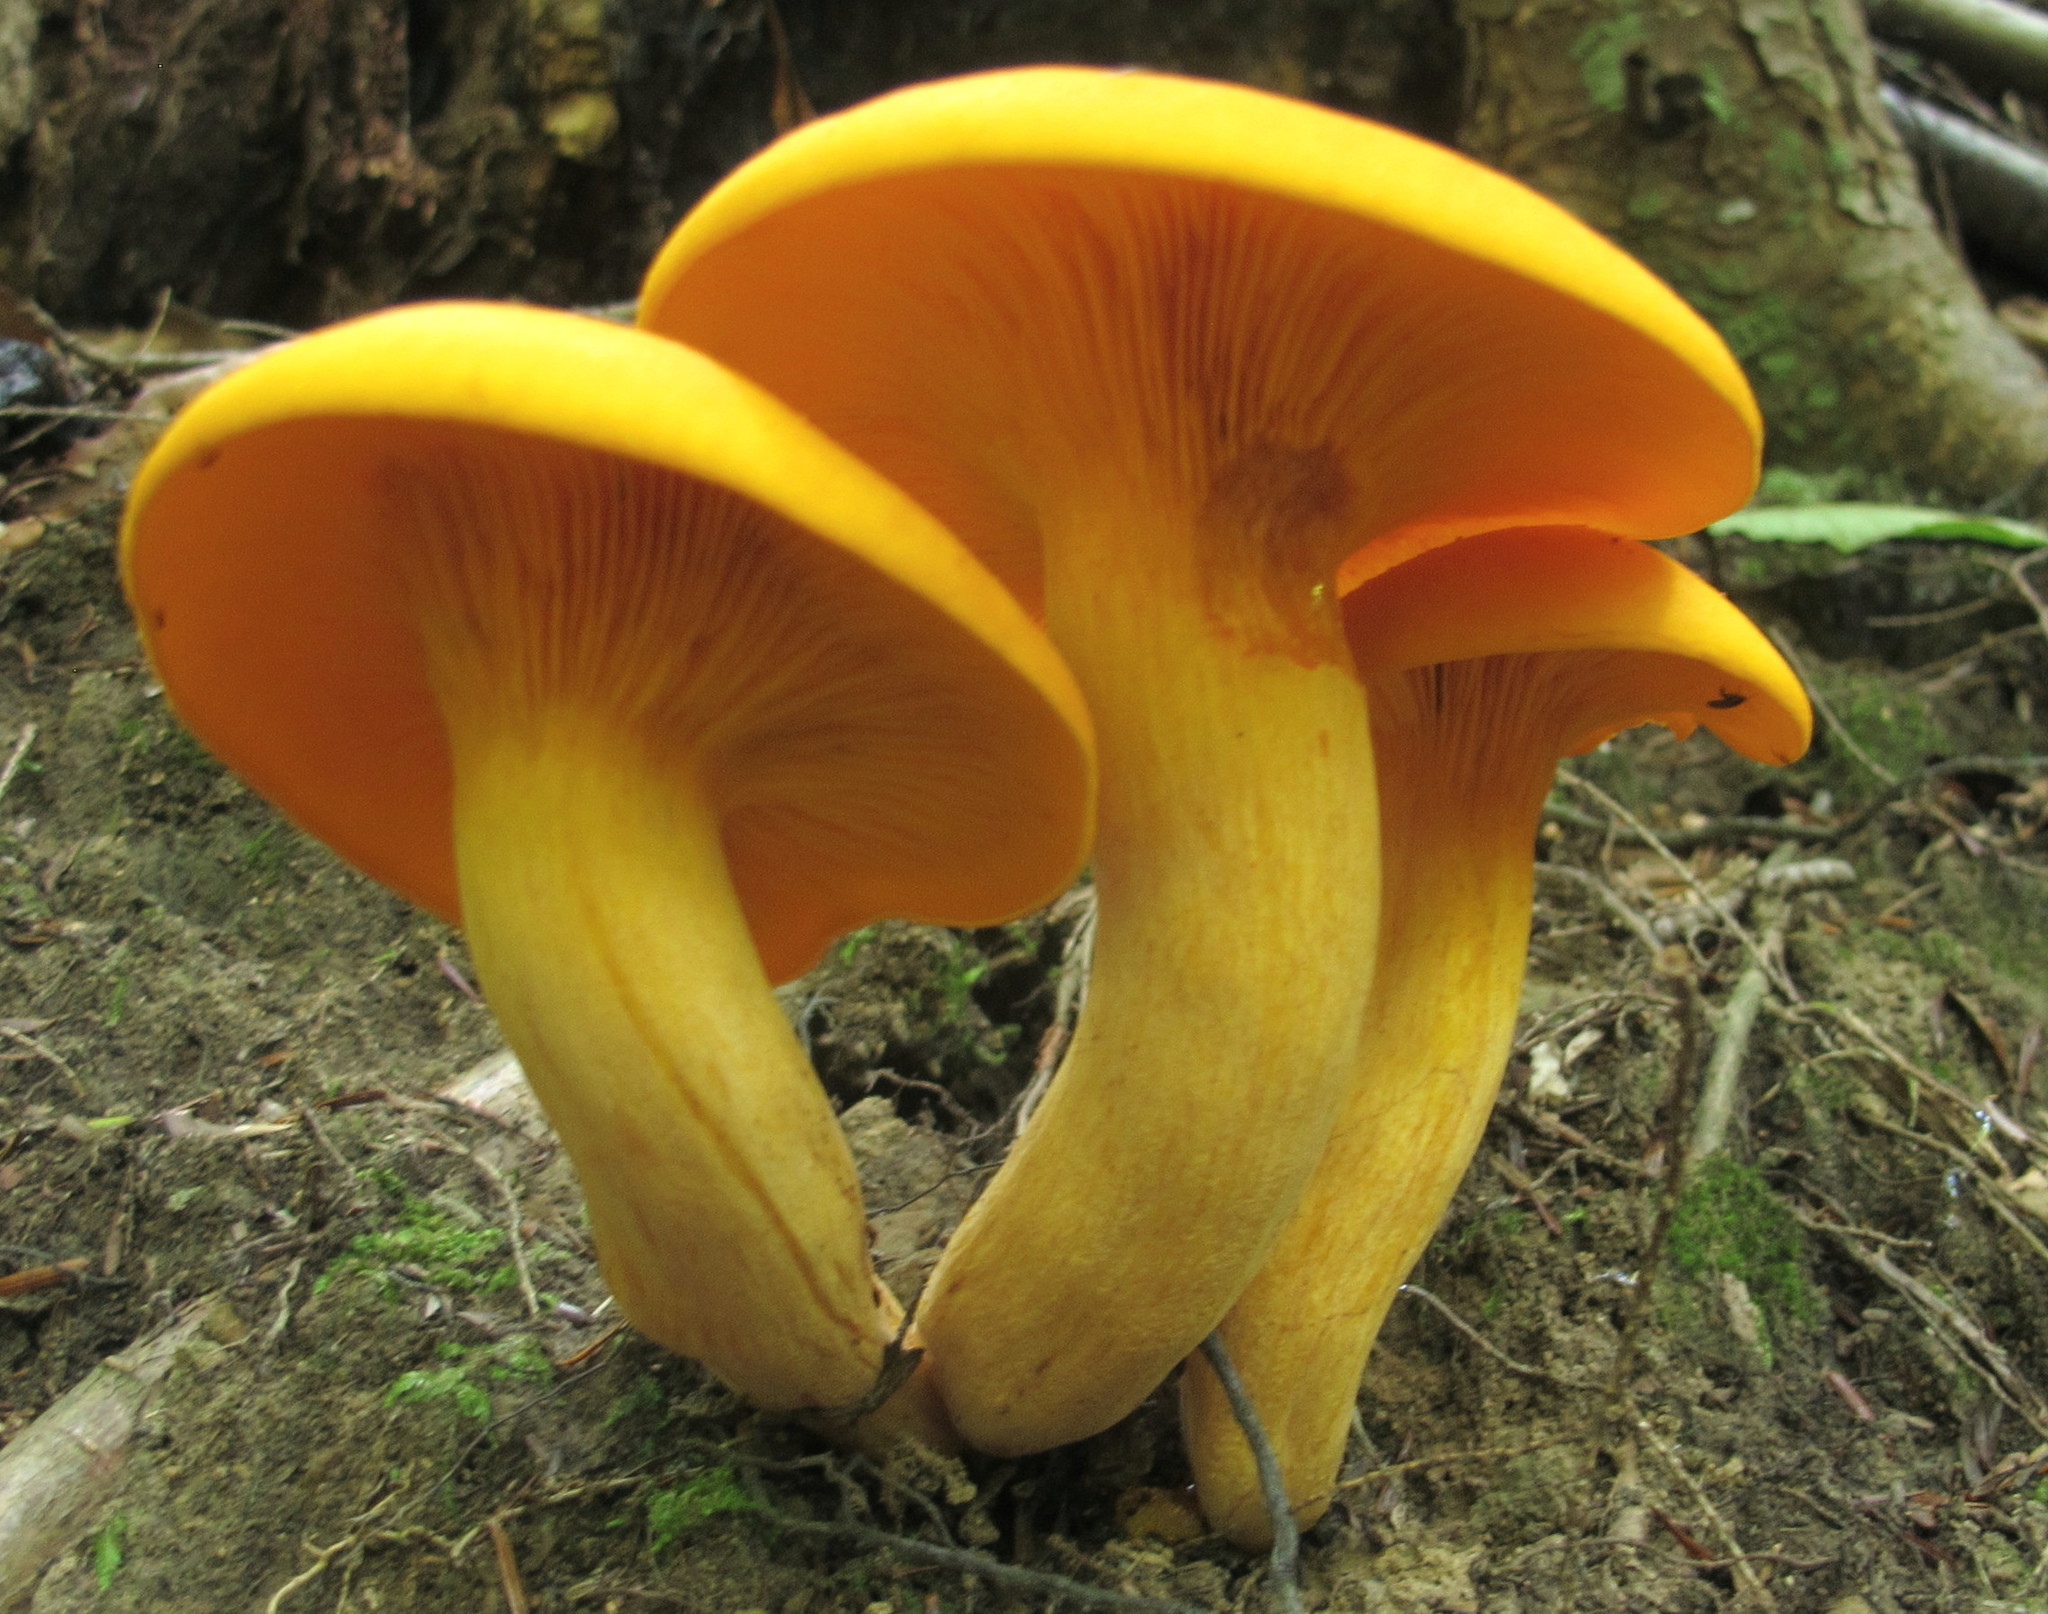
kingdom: Fungi
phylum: Basidiomycota
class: Agaricomycetes
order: Agaricales
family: Omphalotaceae
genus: Omphalotus
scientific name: Omphalotus illudens
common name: Jack o lantern
